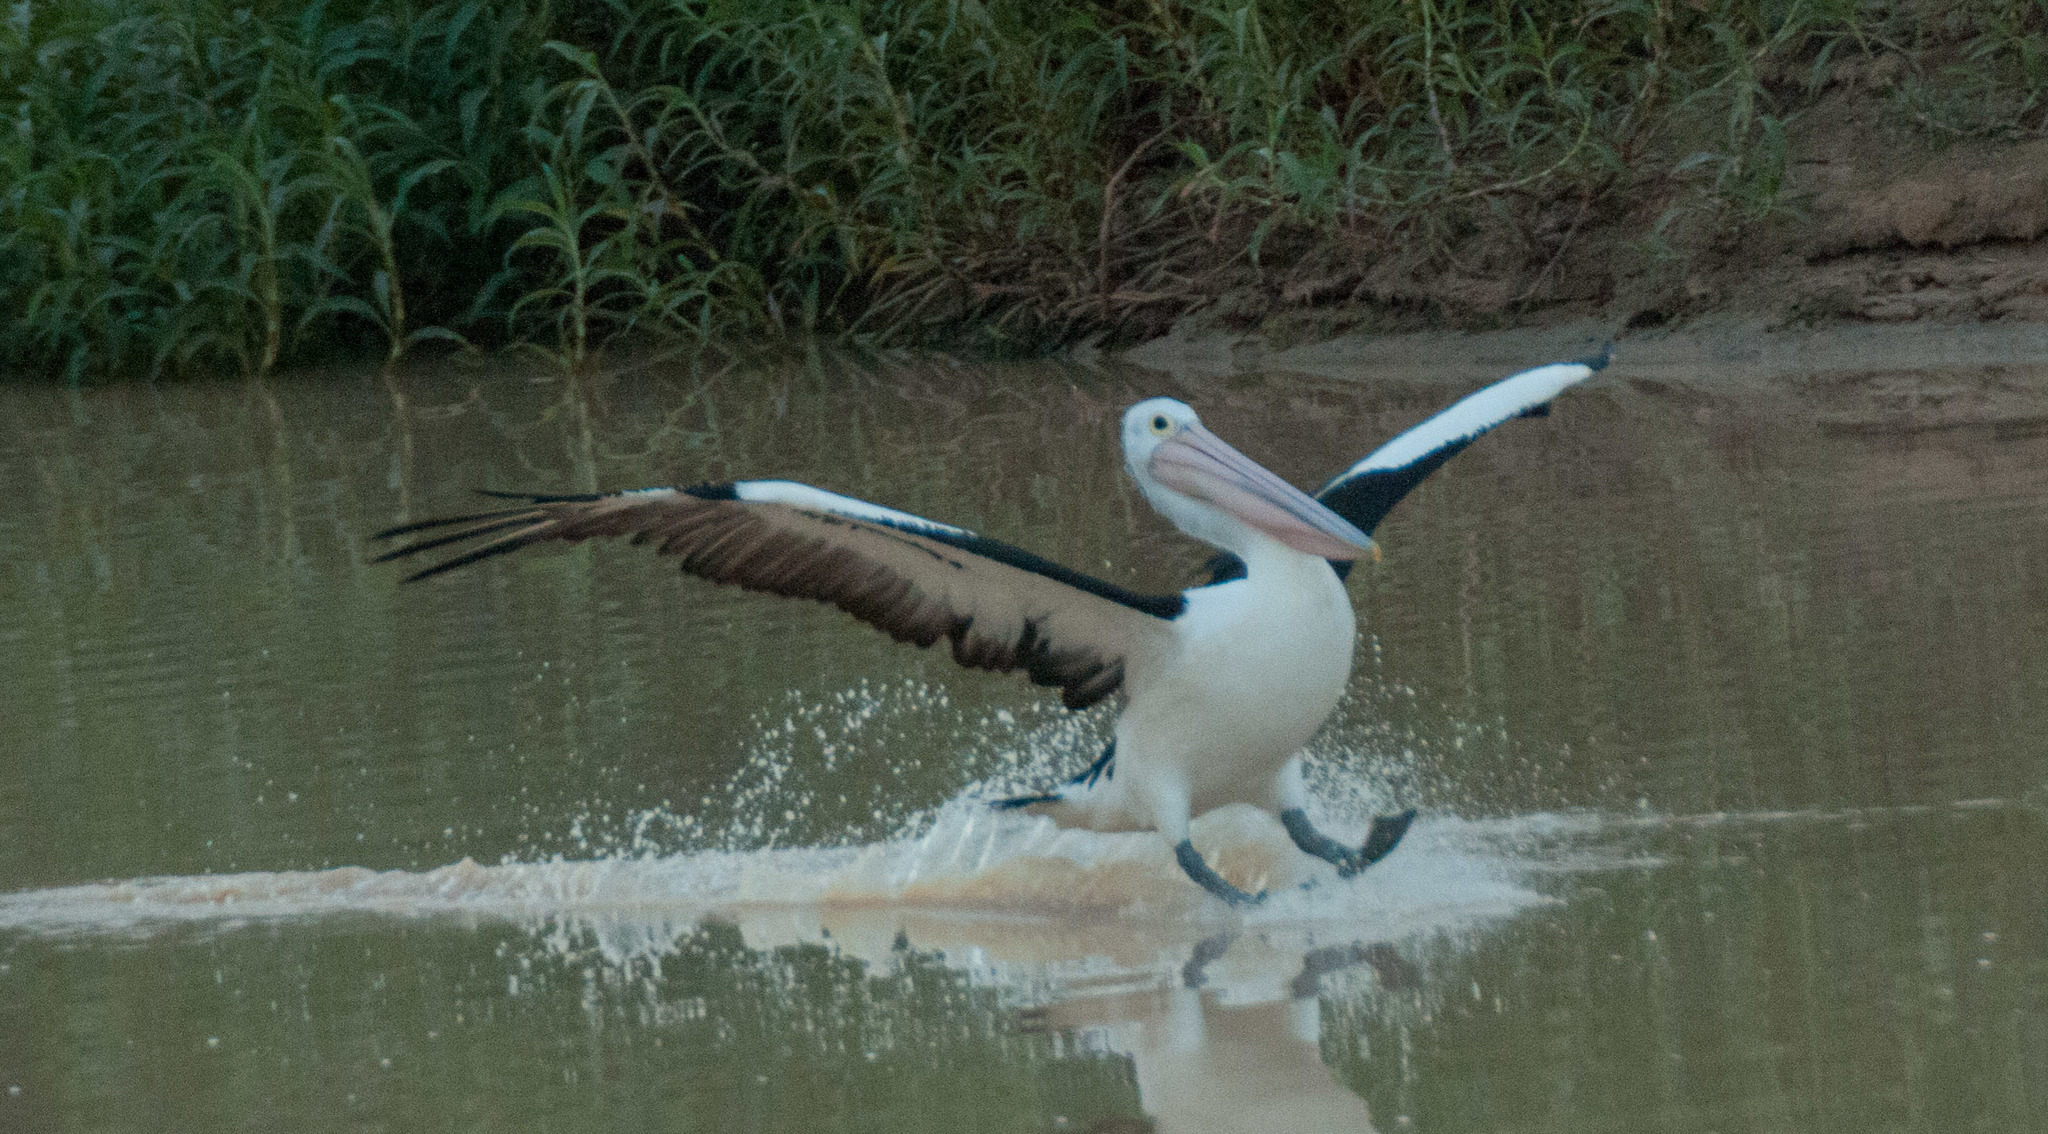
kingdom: Animalia
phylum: Chordata
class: Aves
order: Pelecaniformes
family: Pelecanidae
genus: Pelecanus
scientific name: Pelecanus conspicillatus
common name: Australian pelican
